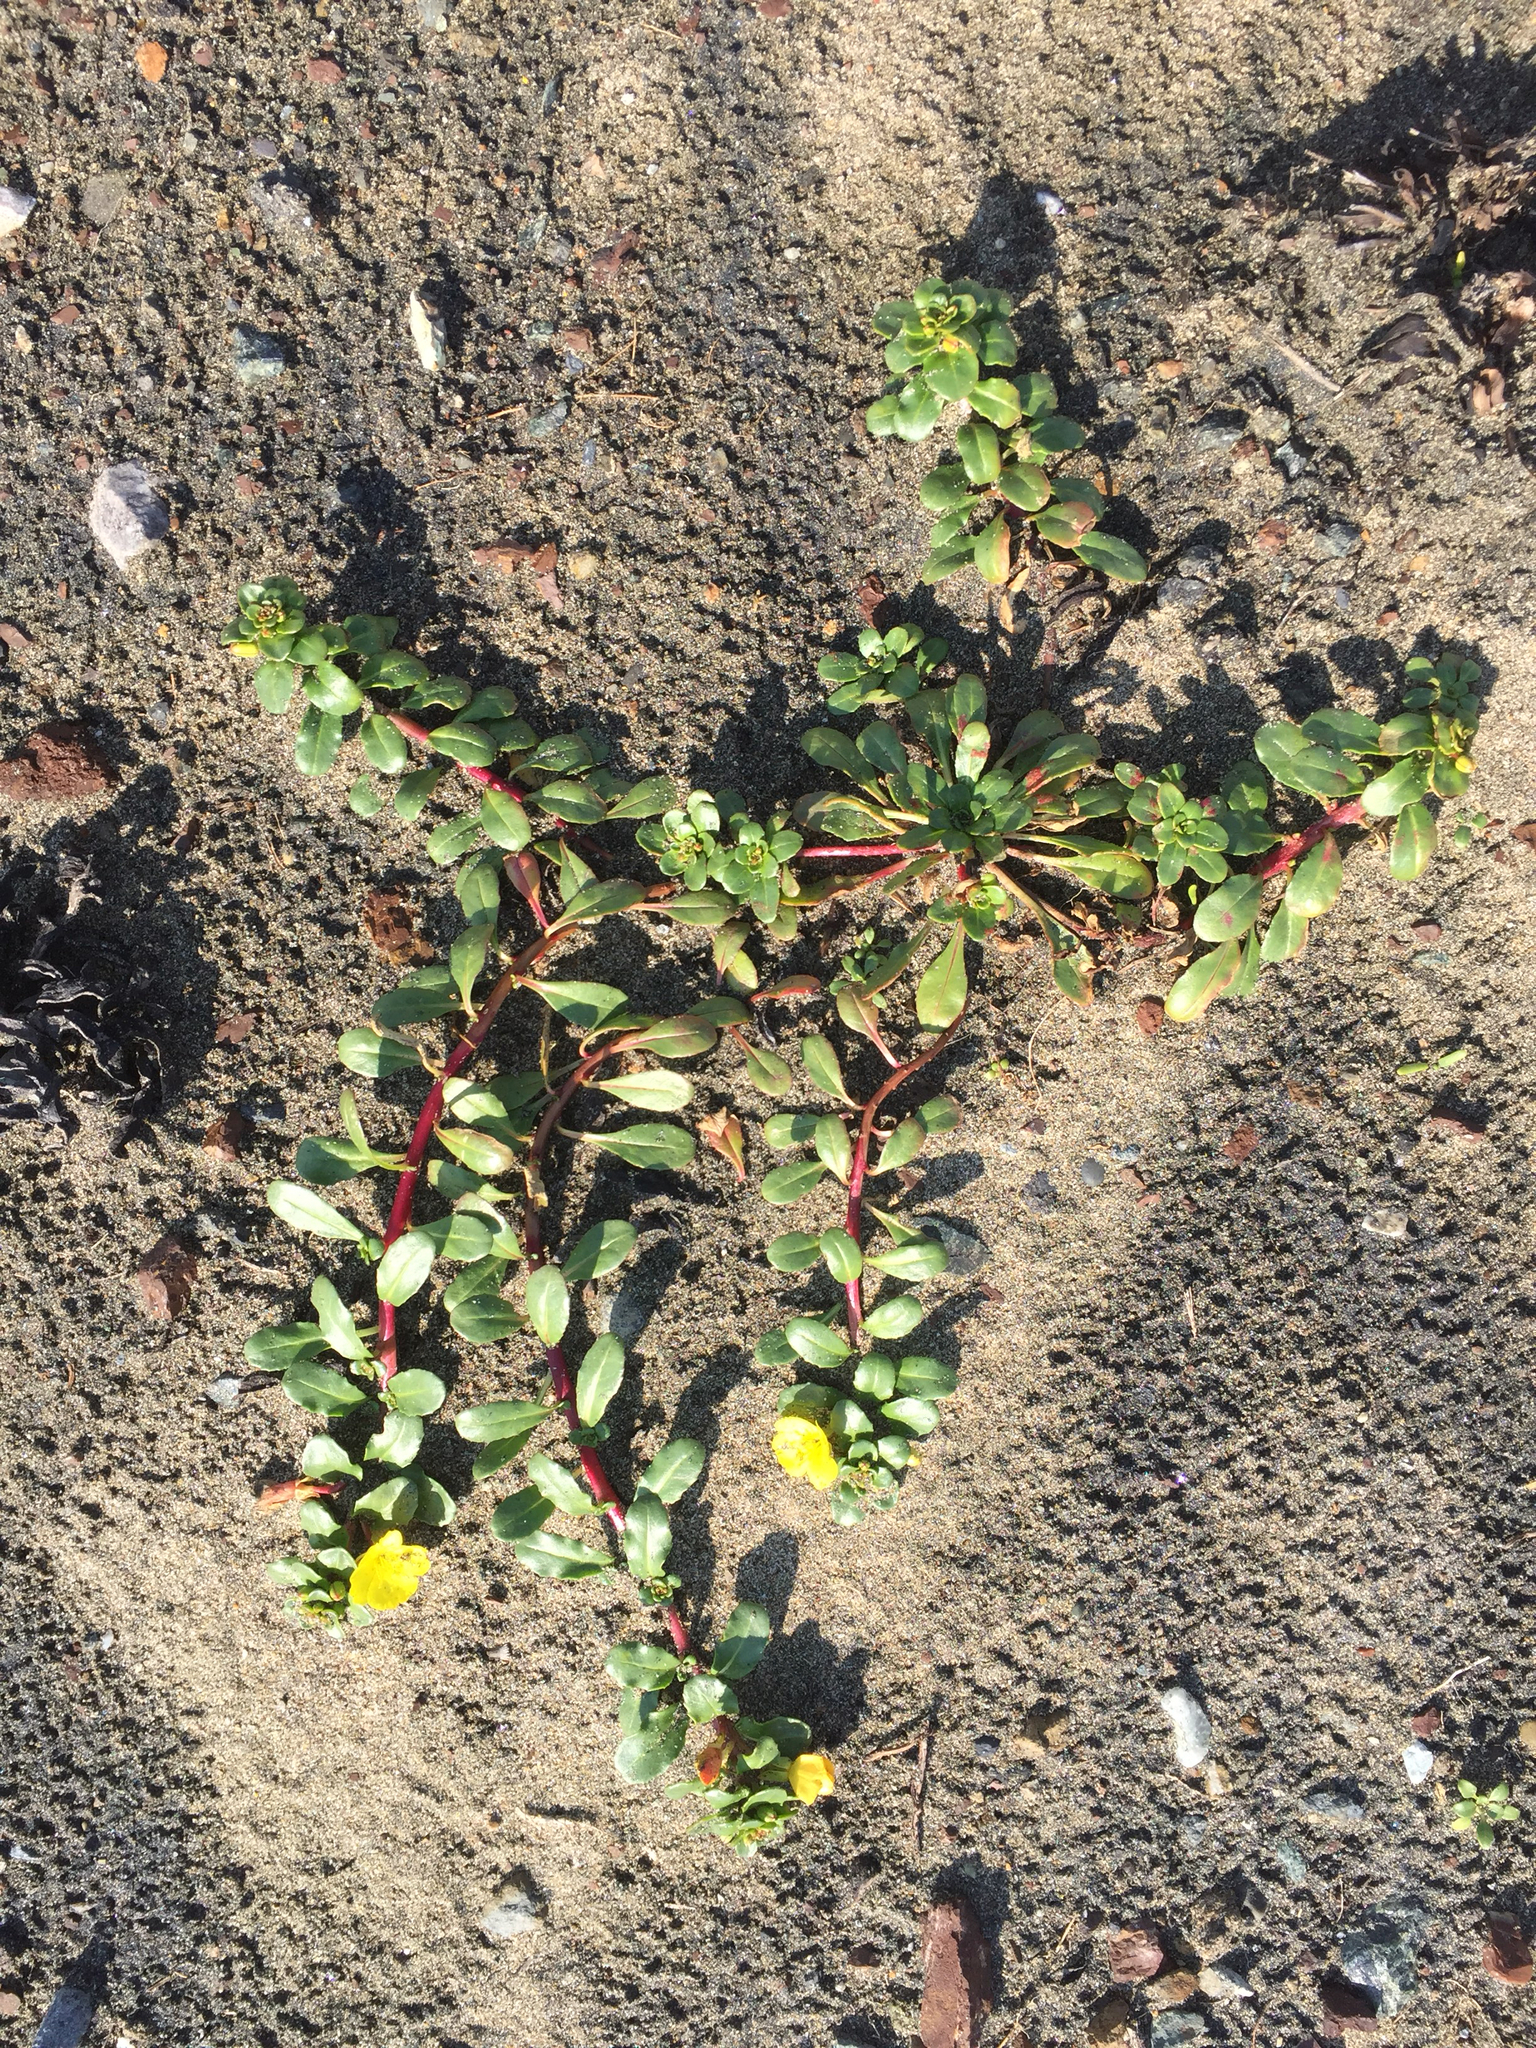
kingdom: Plantae
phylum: Tracheophyta
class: Magnoliopsida
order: Myrtales
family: Onagraceae
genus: Camissoniopsis
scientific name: Camissoniopsis cheiranthifolia
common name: Beach suncup
